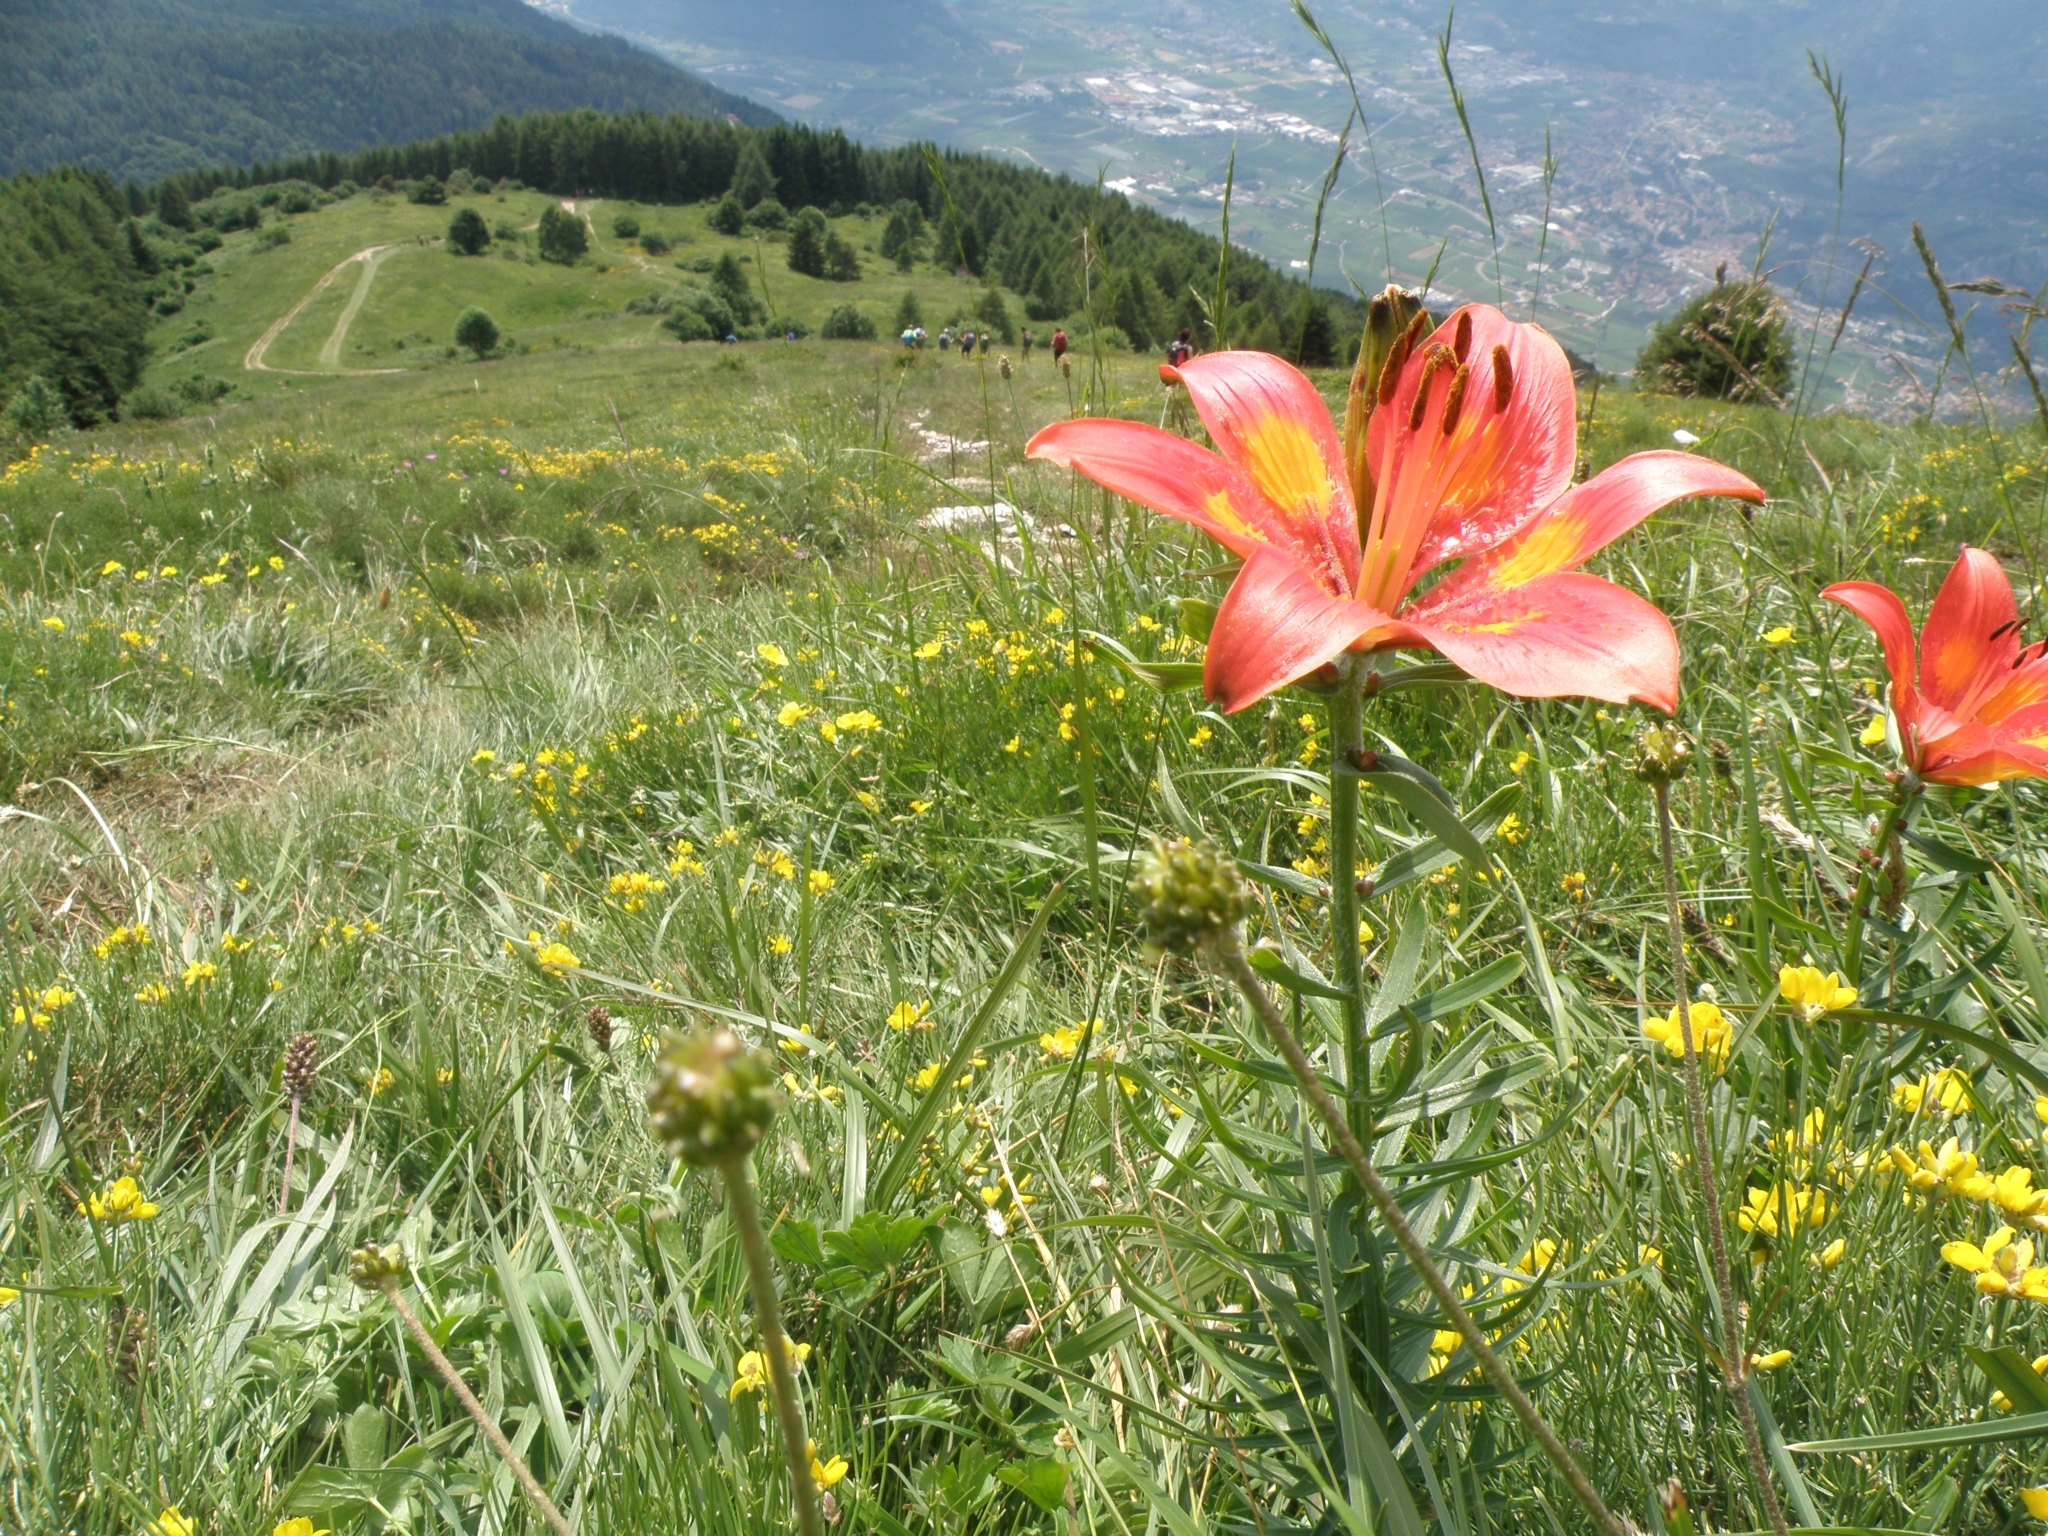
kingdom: Plantae
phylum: Tracheophyta
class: Liliopsida
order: Liliales
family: Liliaceae
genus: Lilium
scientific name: Lilium bulbiferum
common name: Orange lily
